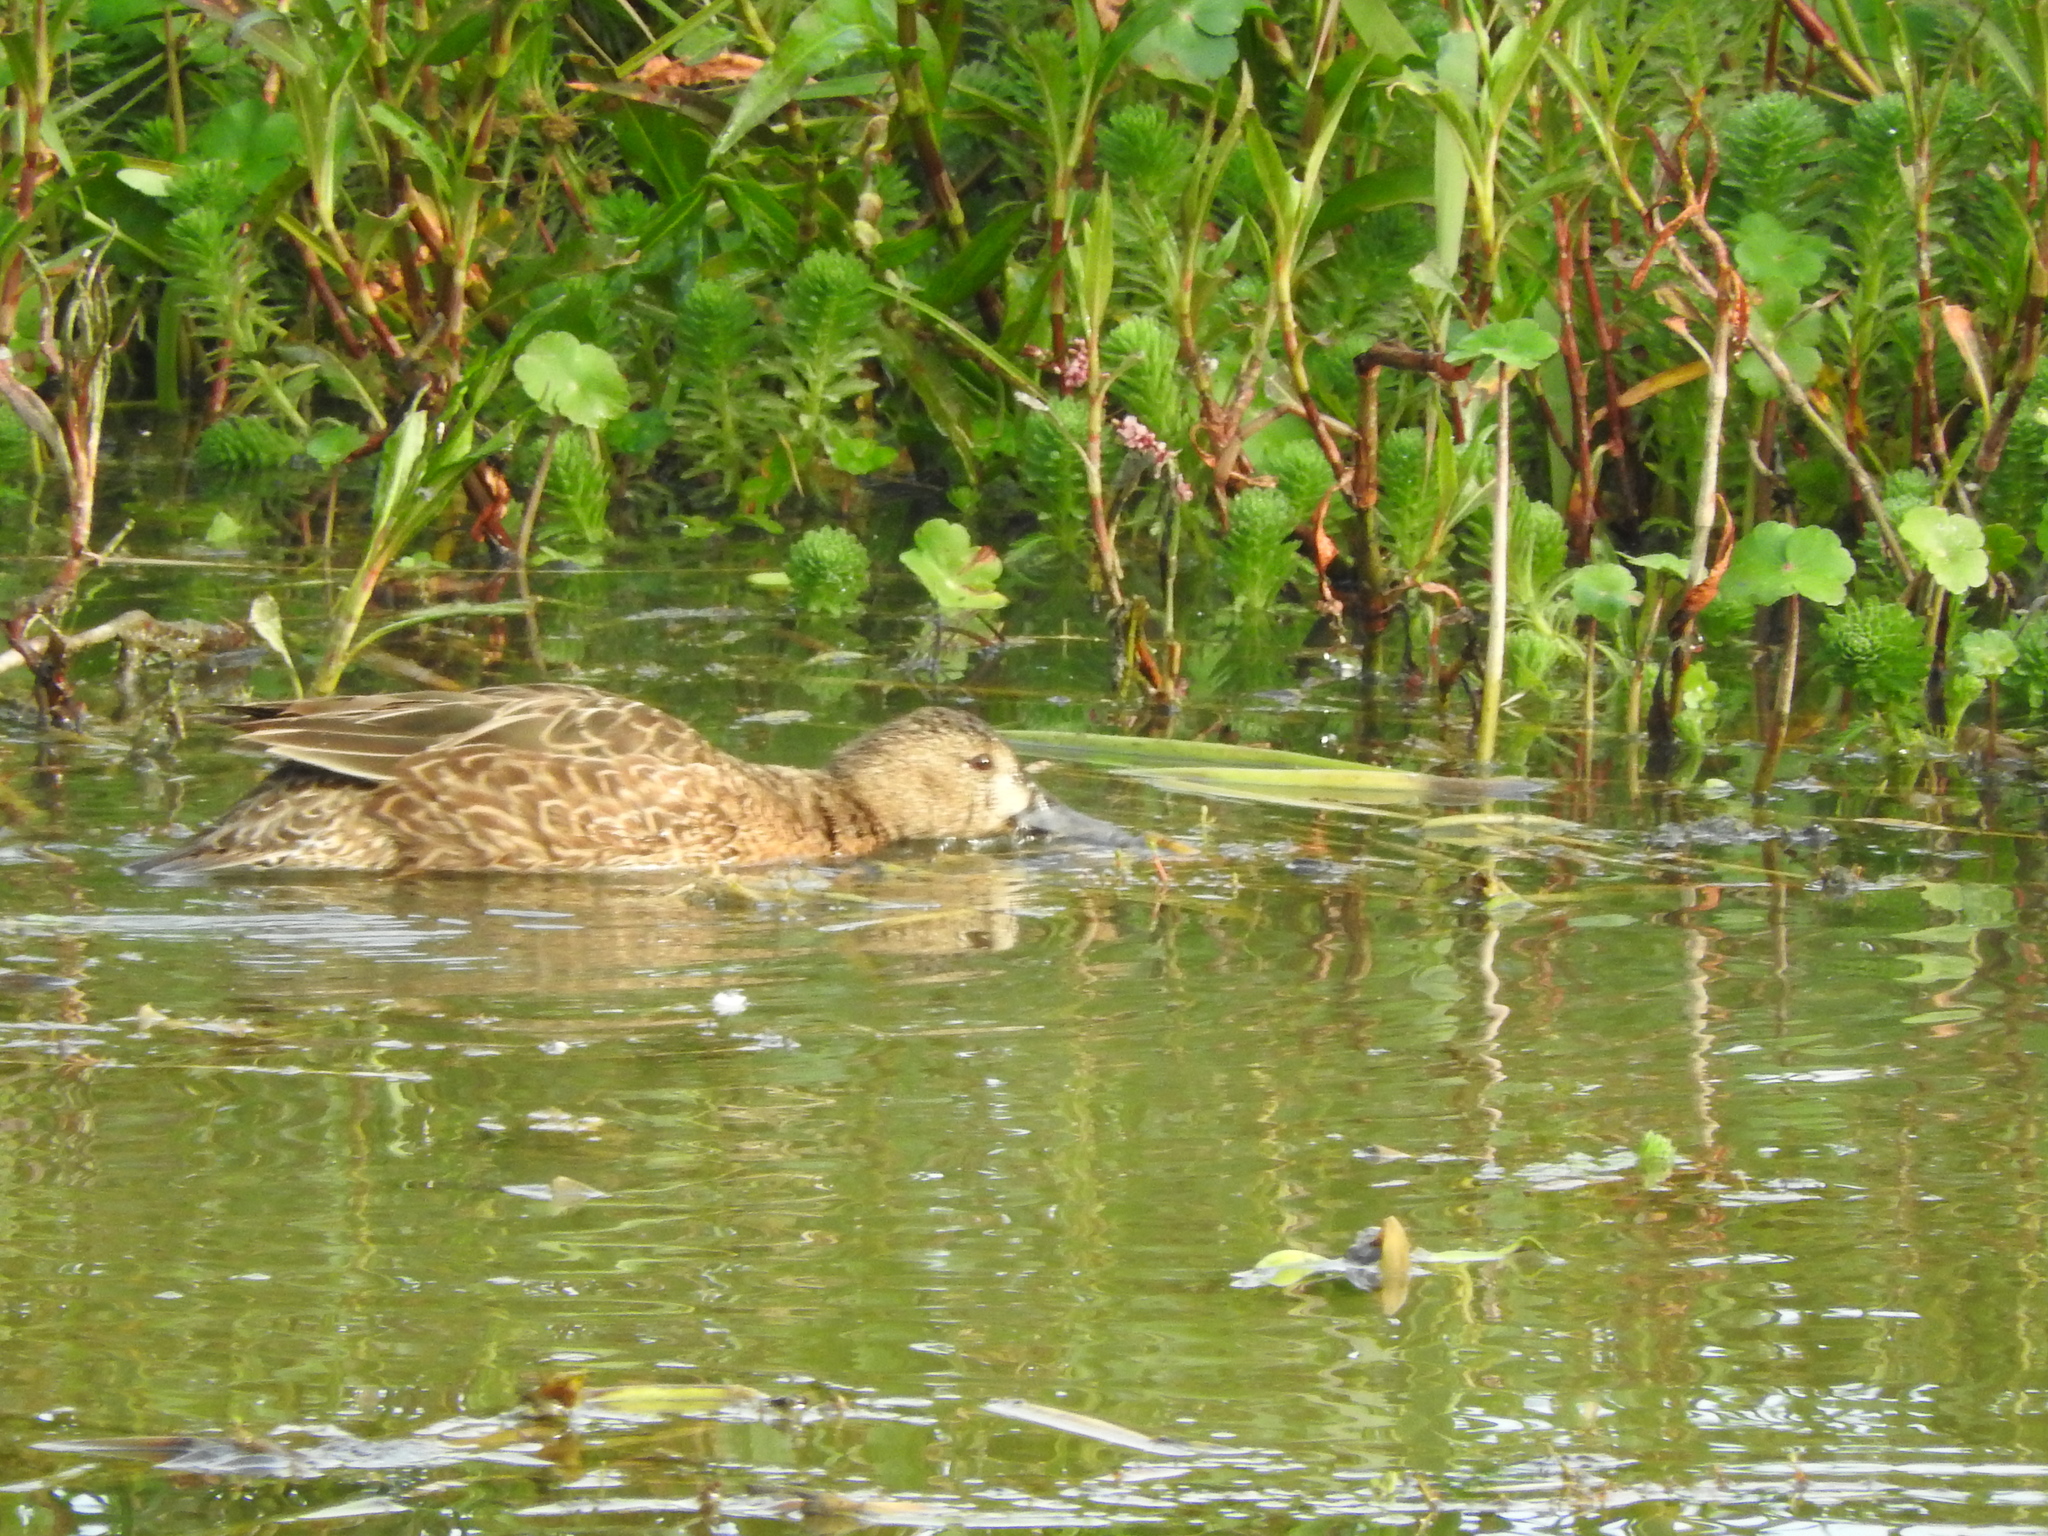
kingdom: Animalia
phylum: Chordata
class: Aves
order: Anseriformes
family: Anatidae
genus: Anas
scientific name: Anas crecca
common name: Eurasian teal
